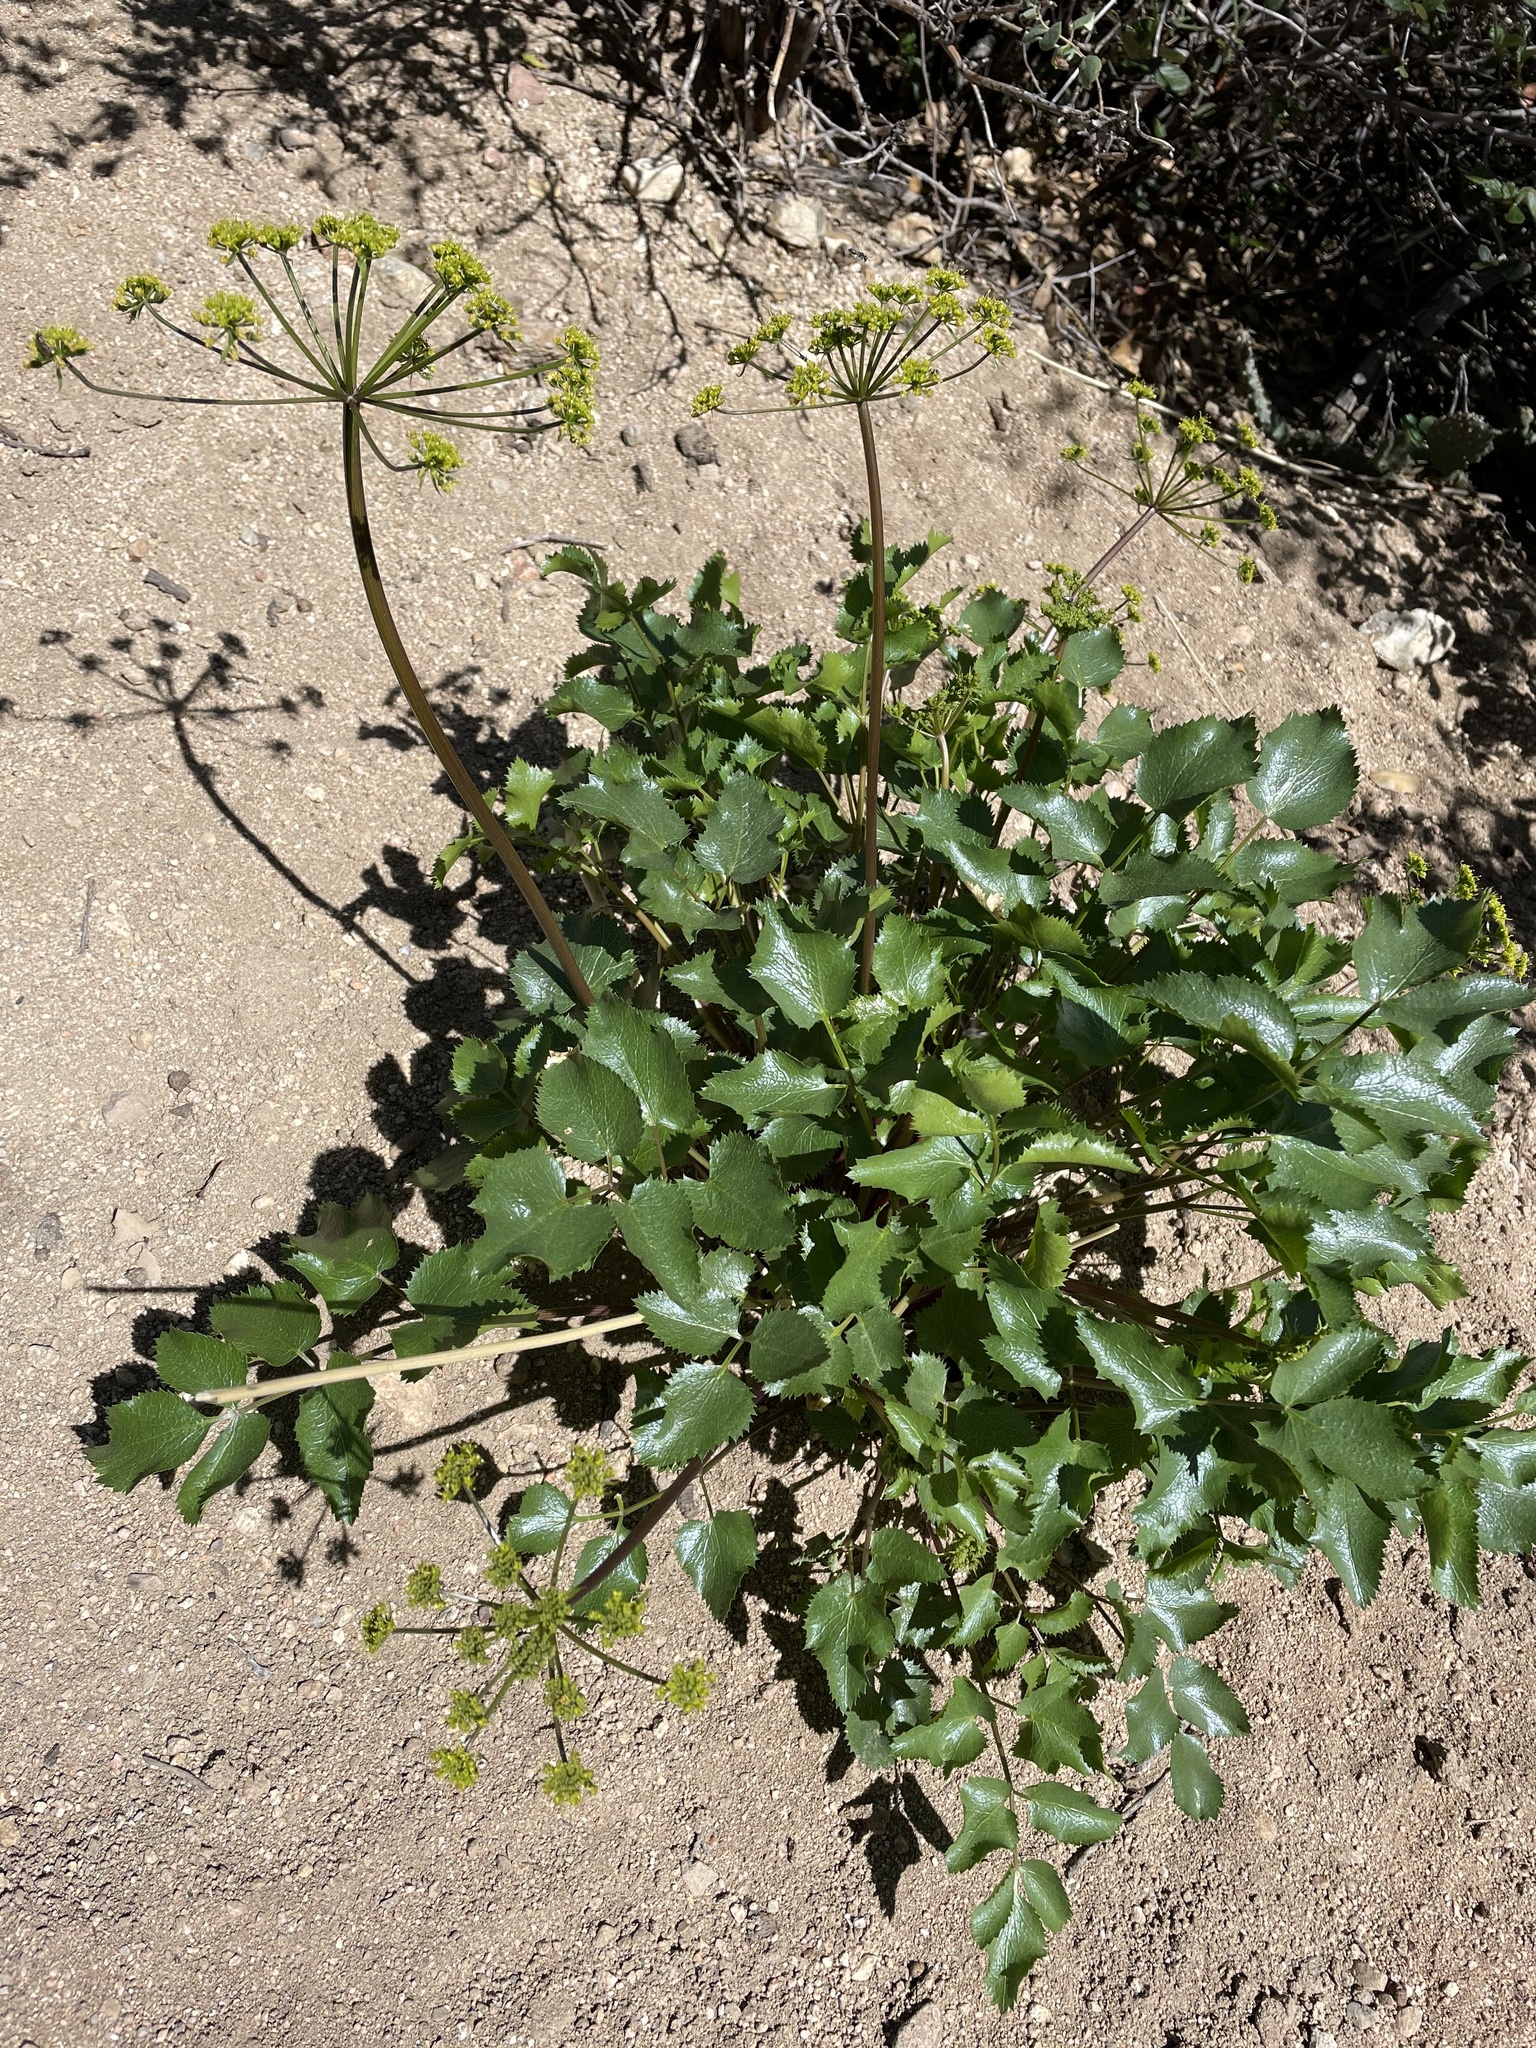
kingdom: Plantae
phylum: Tracheophyta
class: Magnoliopsida
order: Apiales
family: Apiaceae
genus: Tauschia
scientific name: Tauschia arguta
